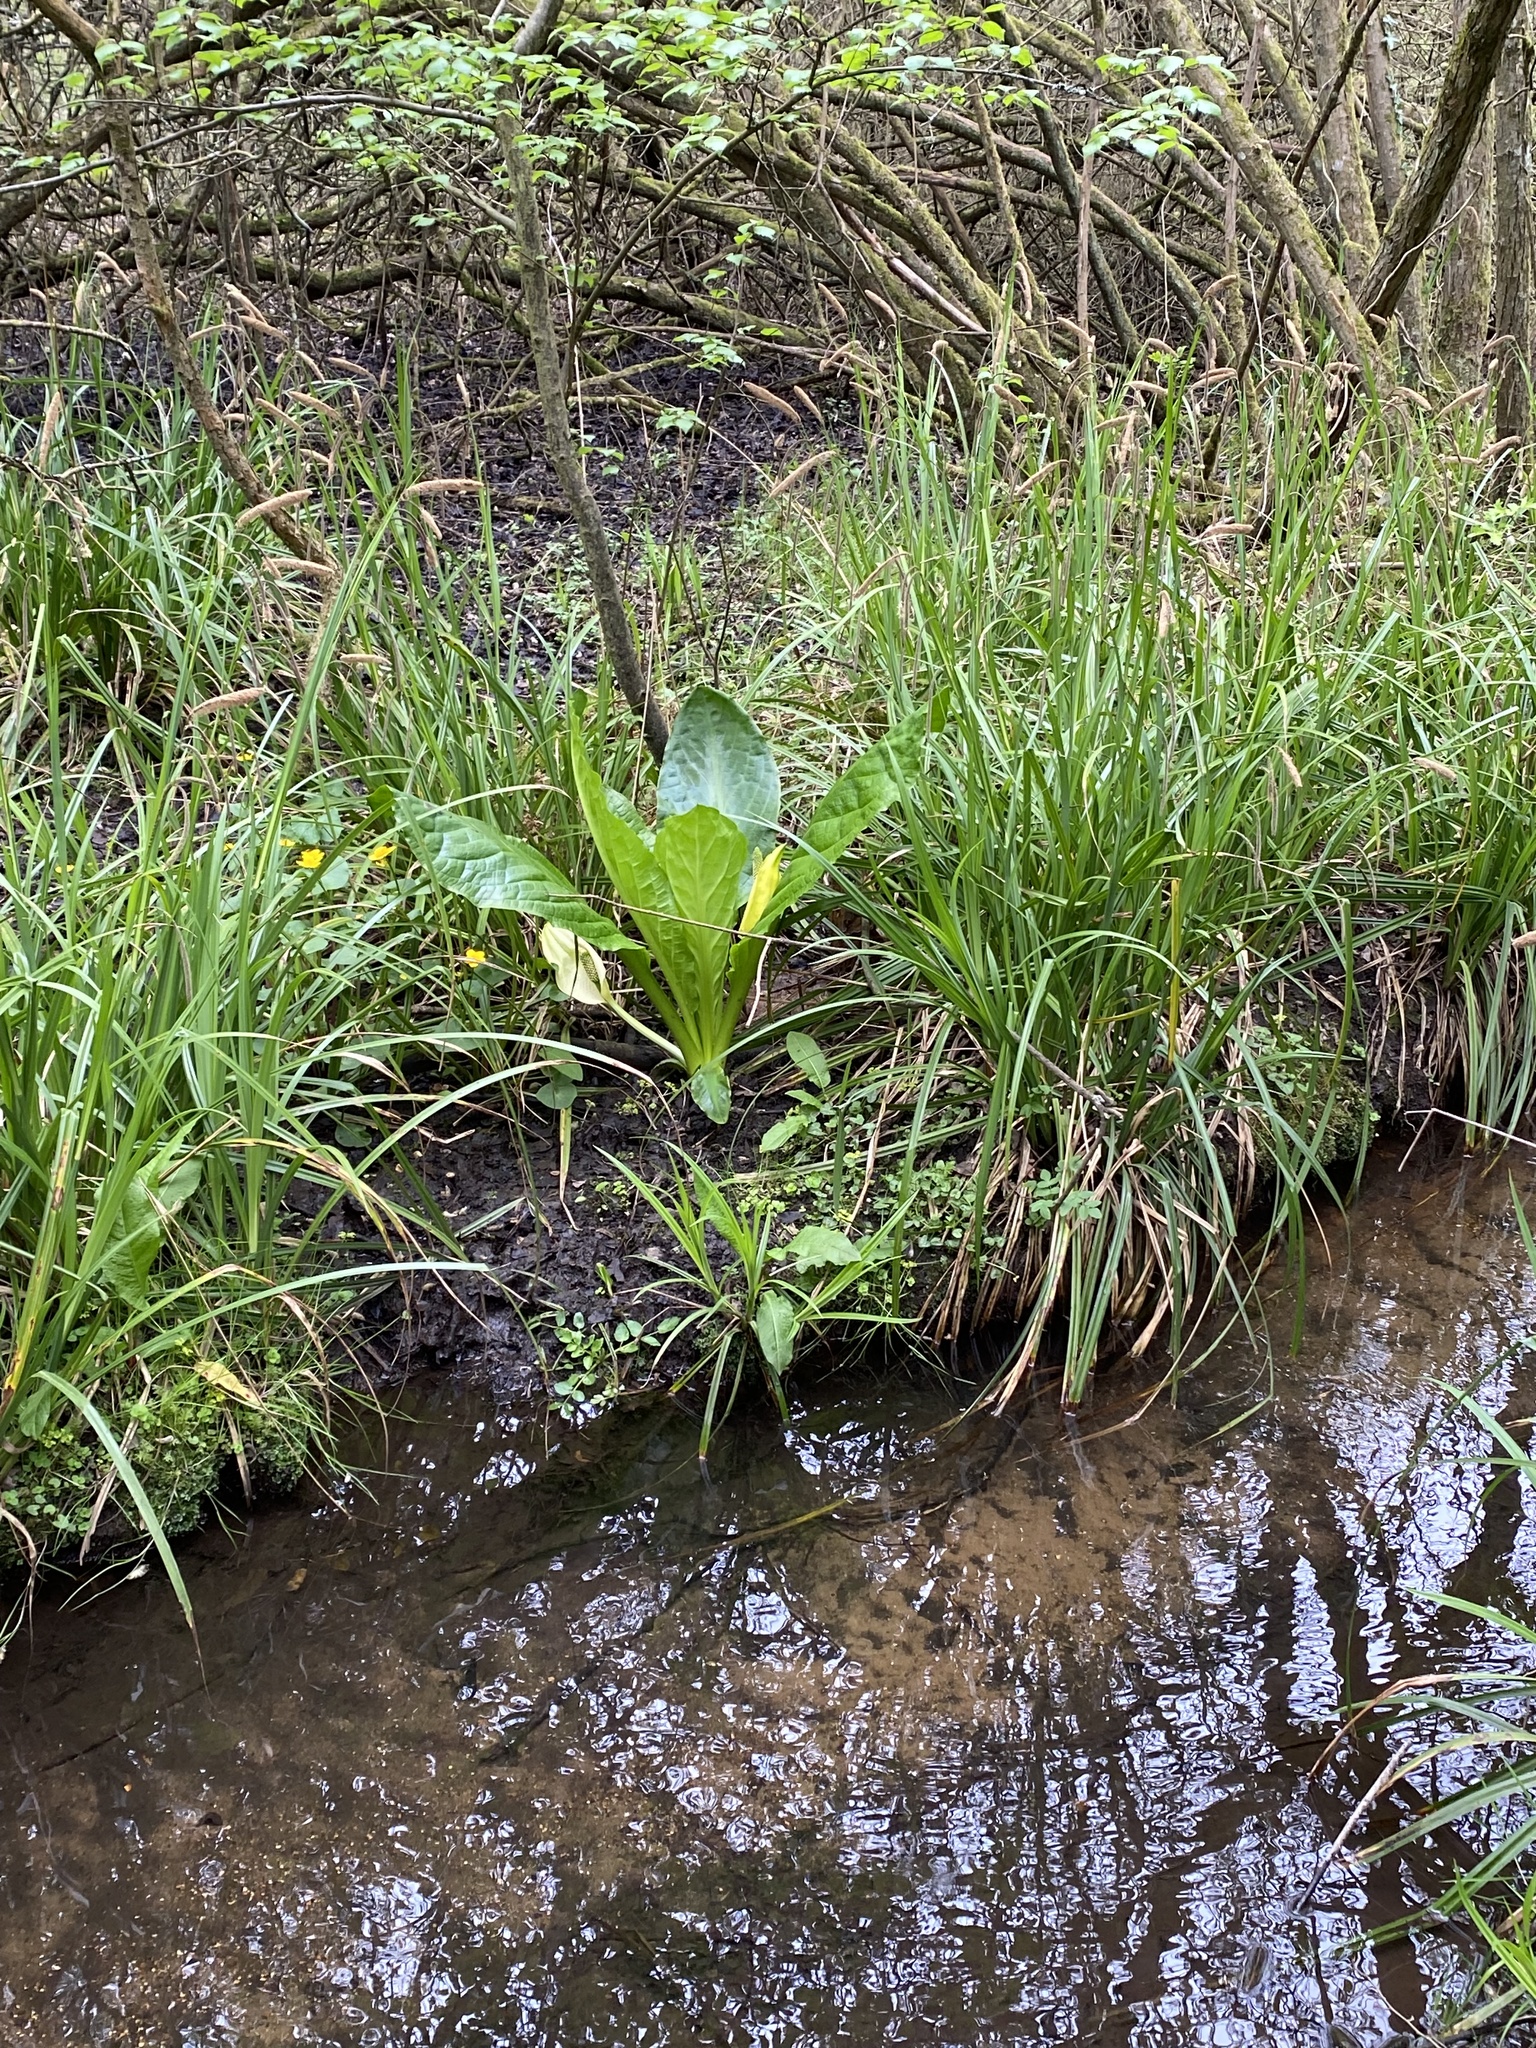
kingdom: Plantae
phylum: Tracheophyta
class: Liliopsida
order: Alismatales
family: Araceae
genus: Lysichiton
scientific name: Lysichiton americanus
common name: American skunk cabbage
